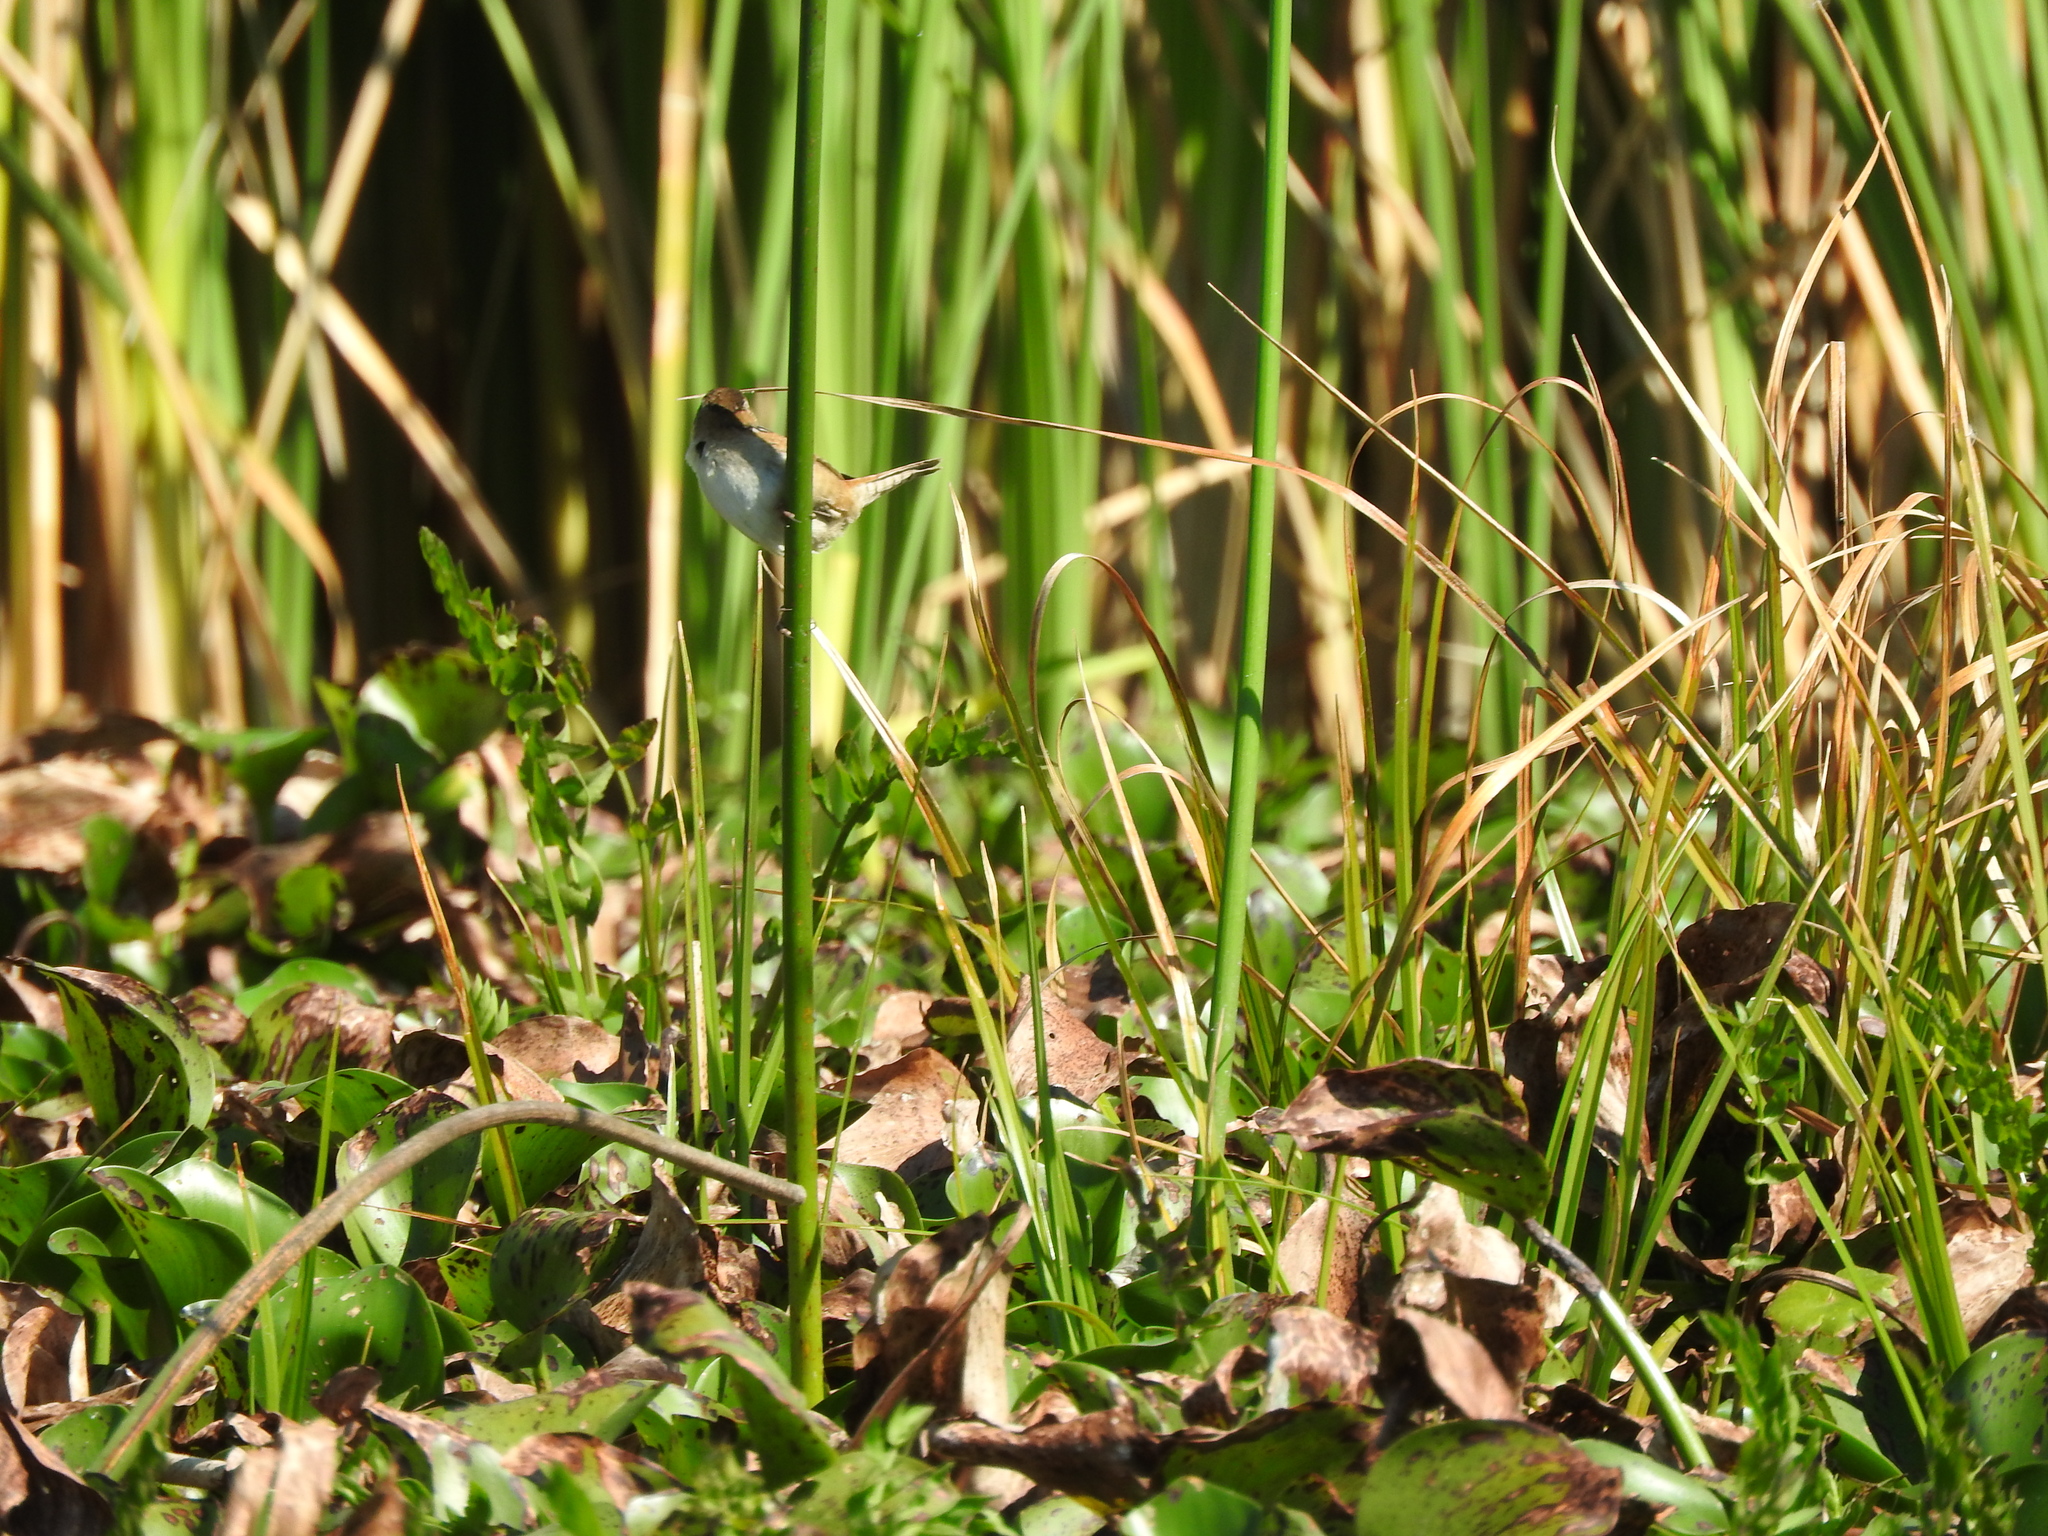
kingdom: Animalia
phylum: Chordata
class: Aves
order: Passeriformes
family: Troglodytidae
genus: Cistothorus
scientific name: Cistothorus palustris
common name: Marsh wren
